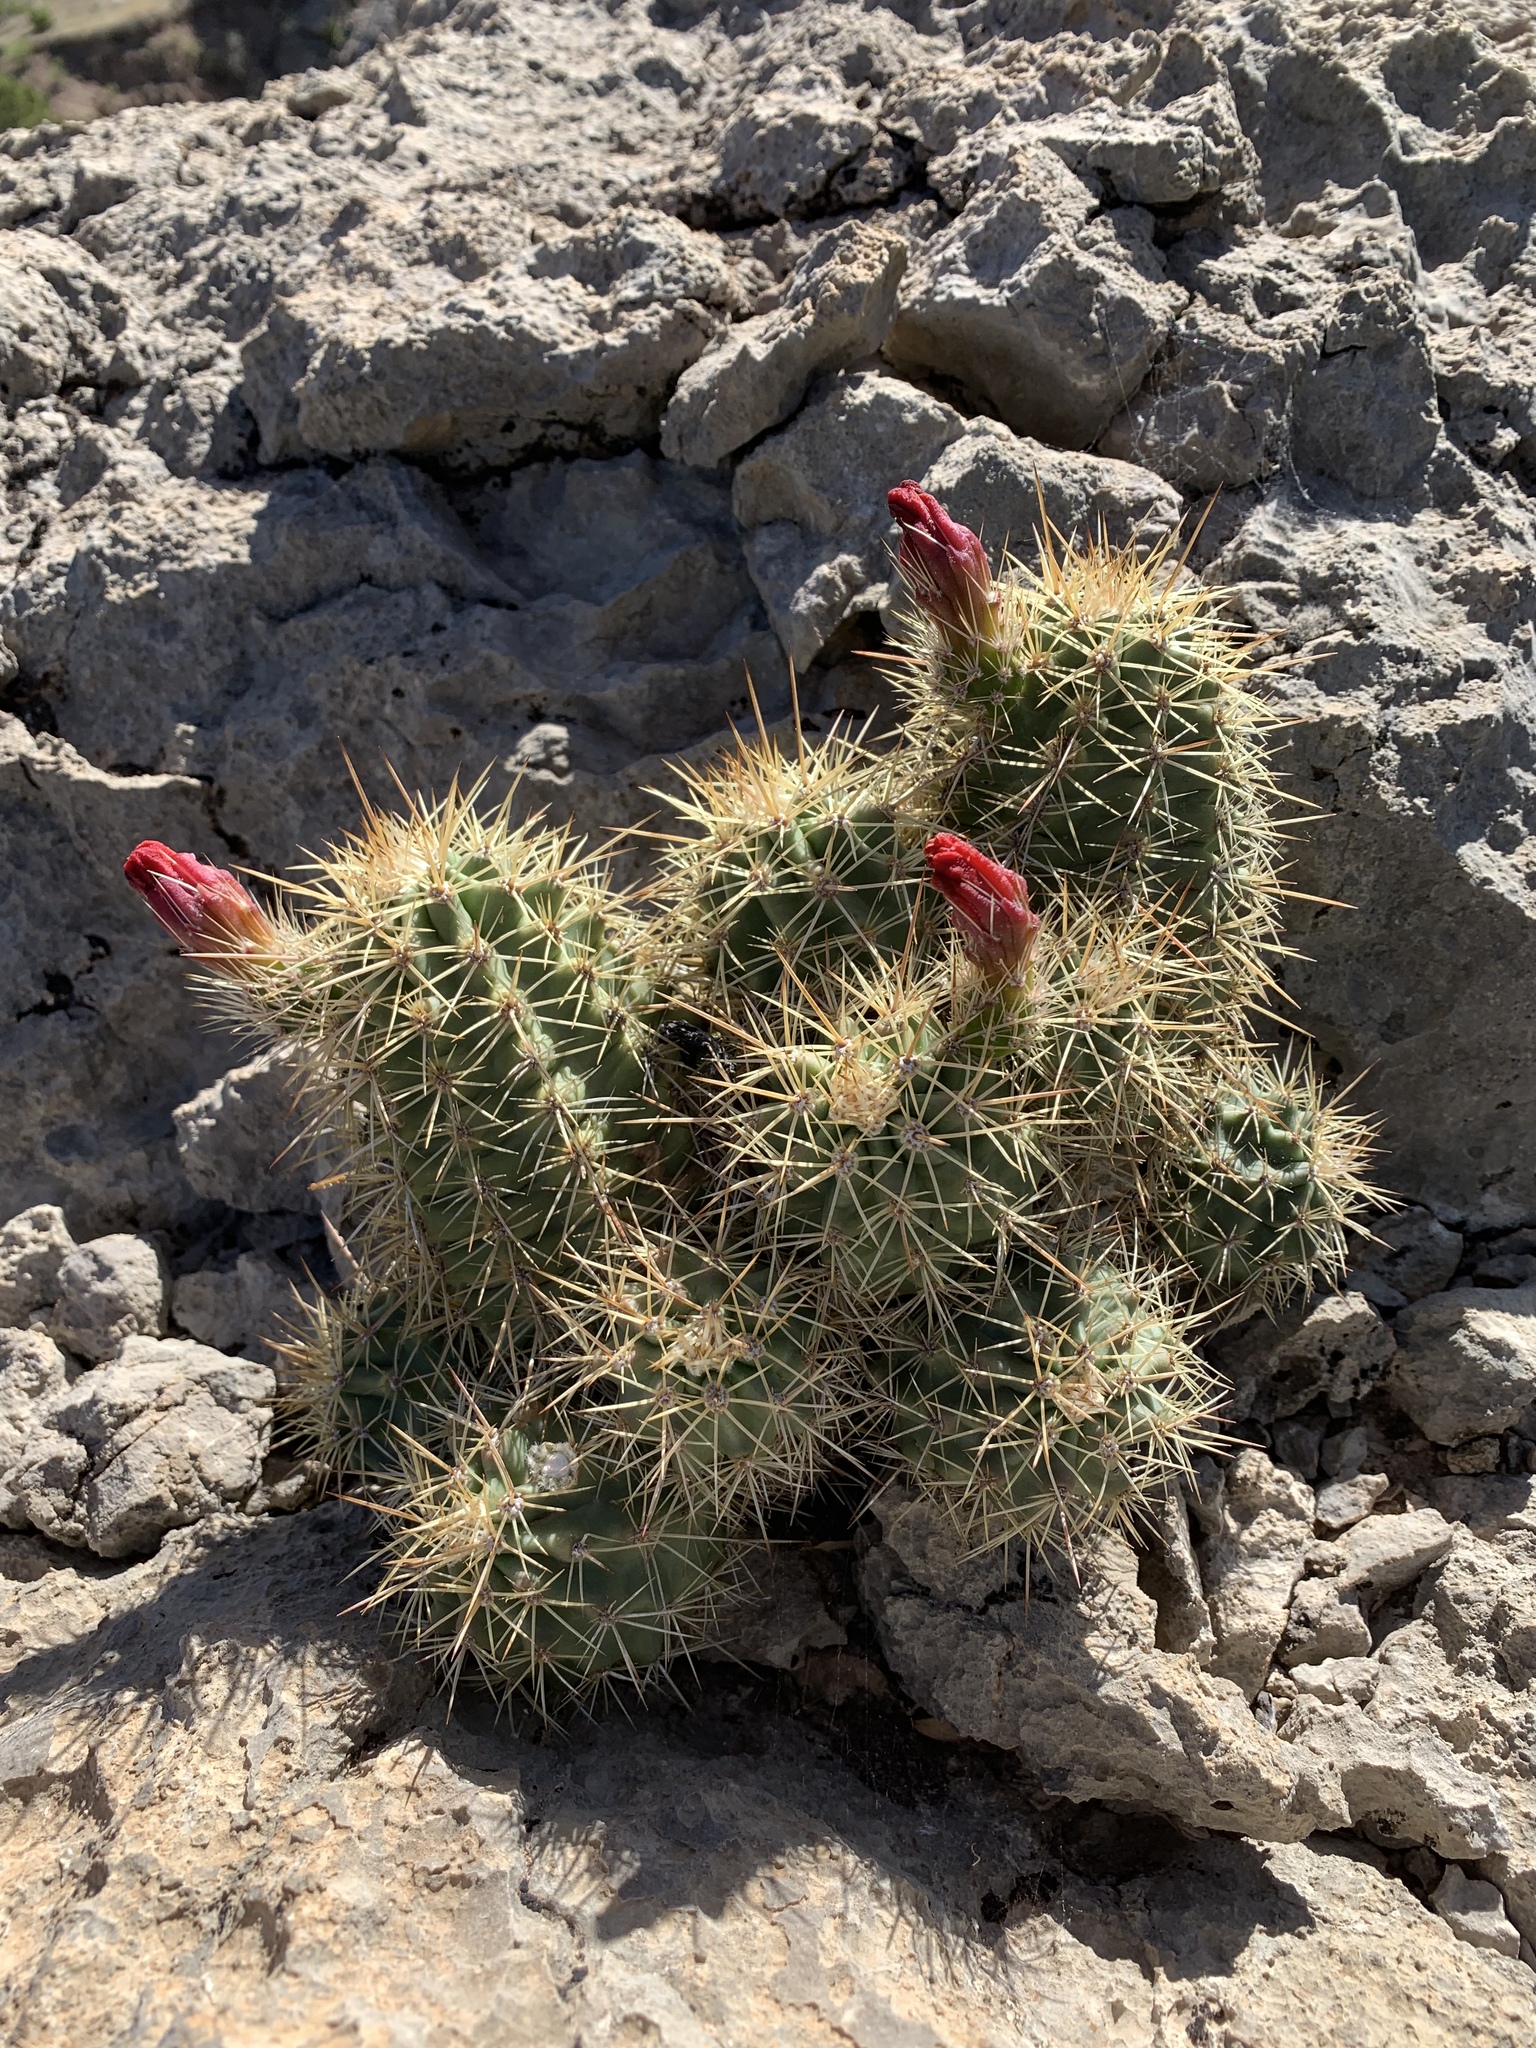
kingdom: Plantae
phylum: Tracheophyta
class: Magnoliopsida
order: Caryophyllales
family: Cactaceae
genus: Echinocereus
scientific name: Echinocereus coccineus
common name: Scarlet hedgehog cactus
